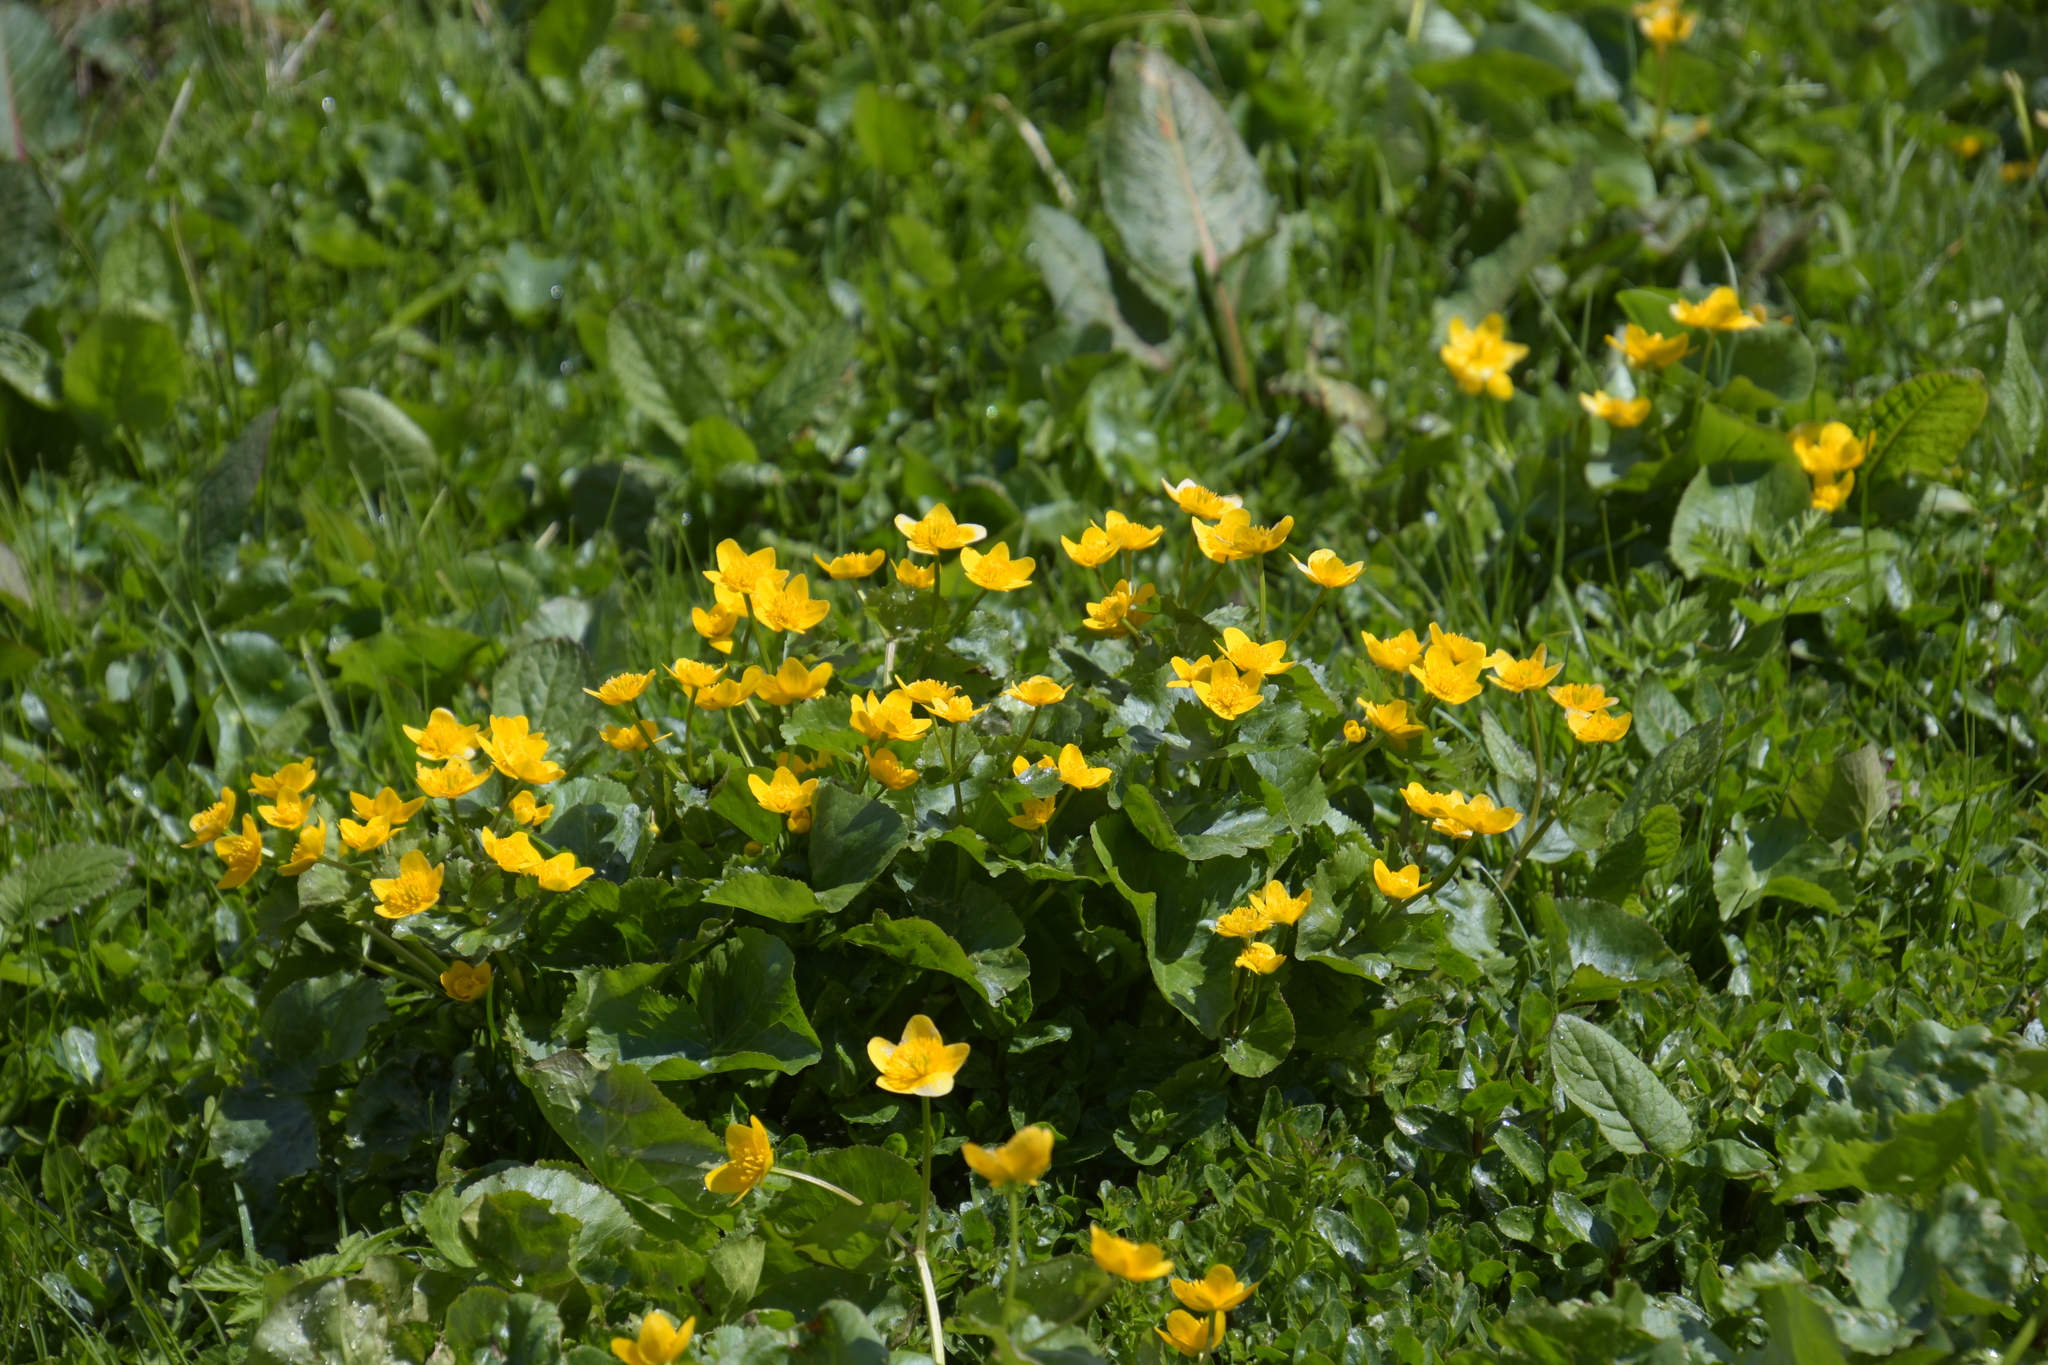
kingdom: Plantae
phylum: Tracheophyta
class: Magnoliopsida
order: Ranunculales
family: Ranunculaceae
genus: Caltha
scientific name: Caltha palustris
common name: Marsh marigold
